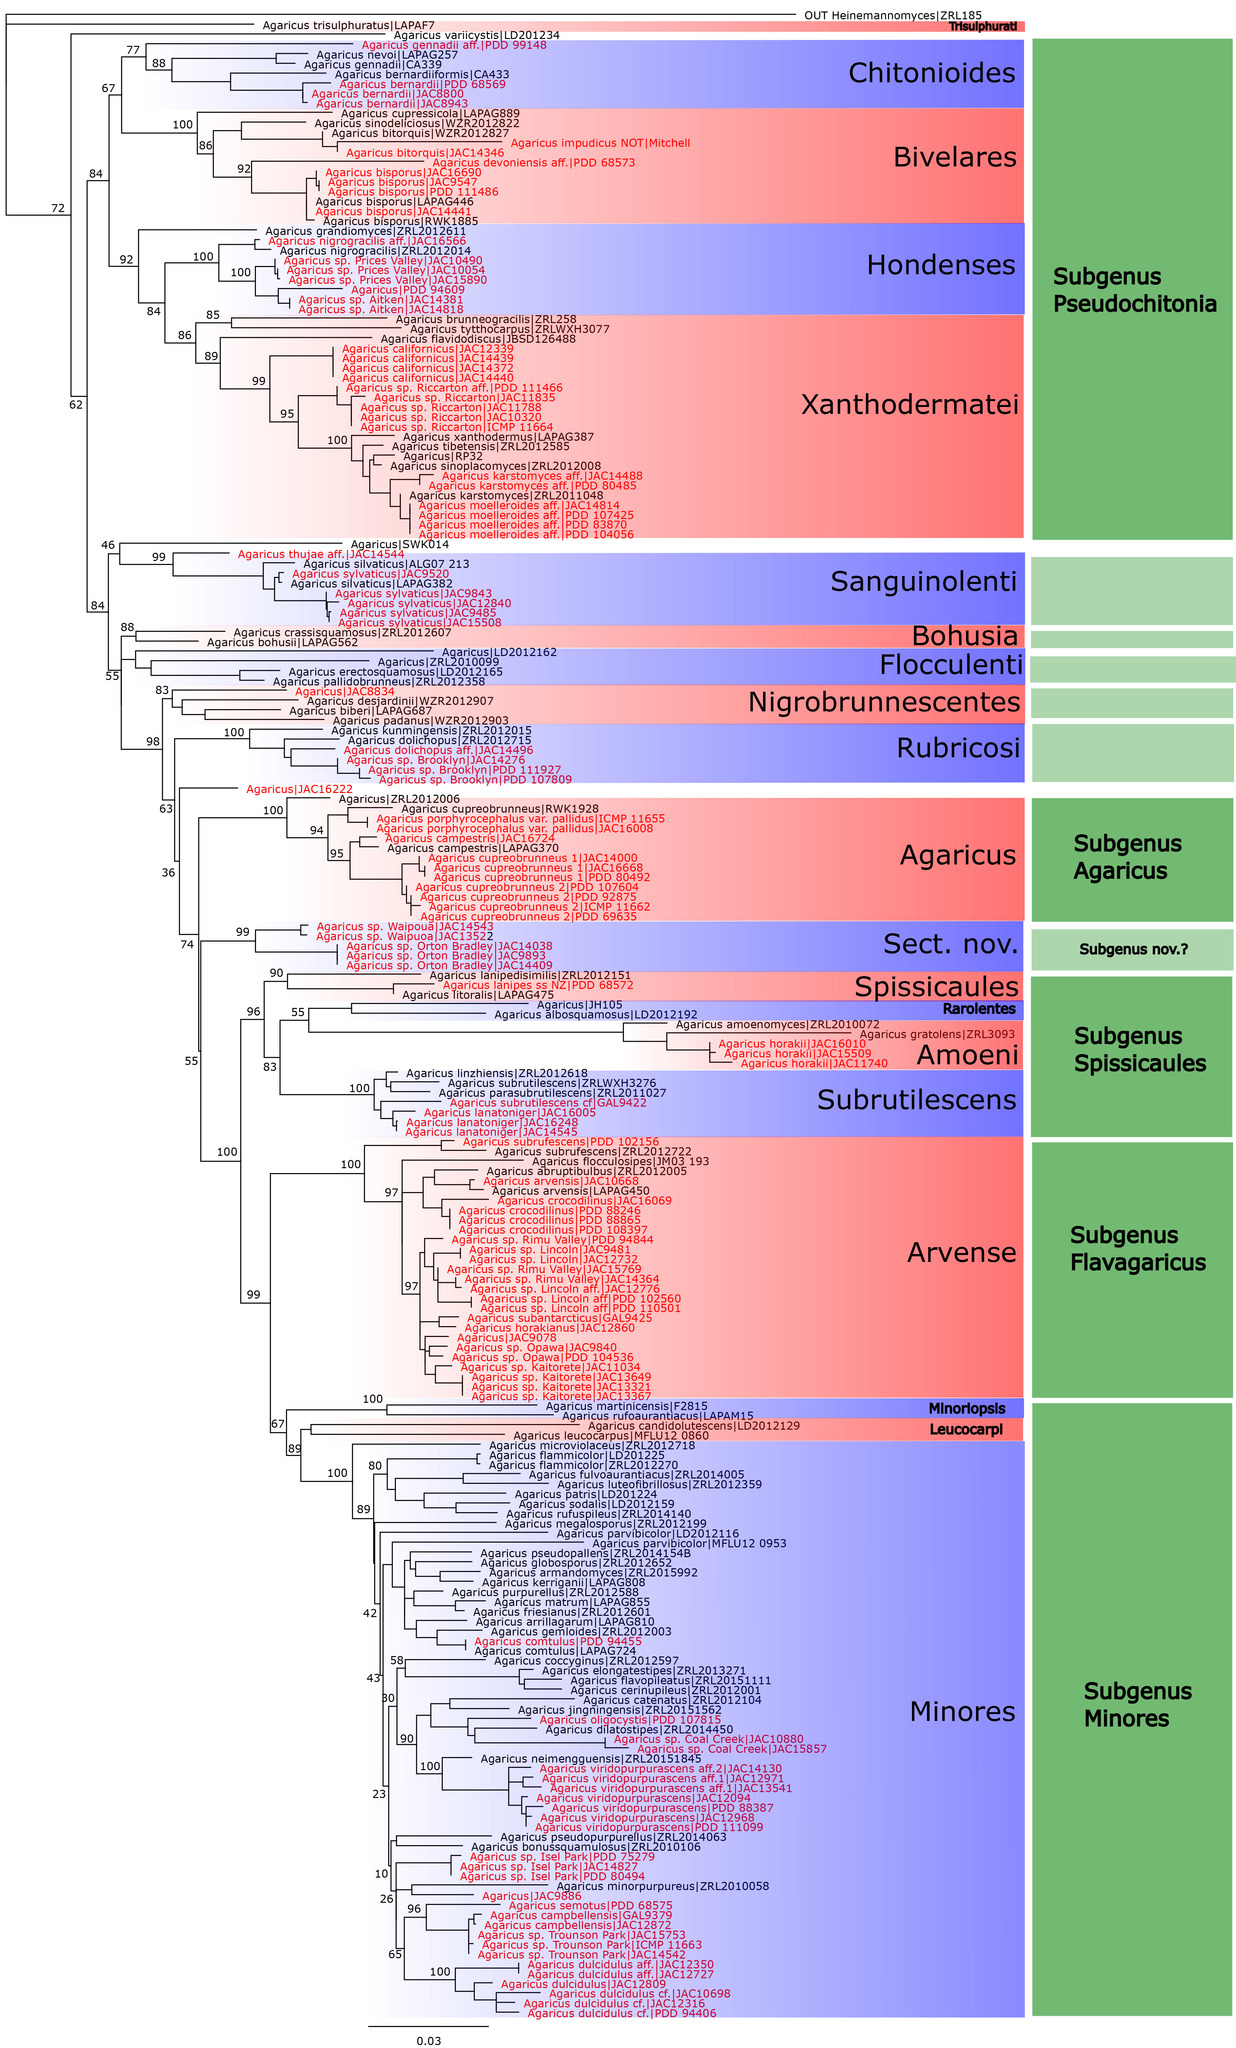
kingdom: Fungi
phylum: Basidiomycota
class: Agaricomycetes
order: Agaricales
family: Agaricaceae
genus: Agaricus
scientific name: Agaricus cupreobrunneus
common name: Copper mushrooom
